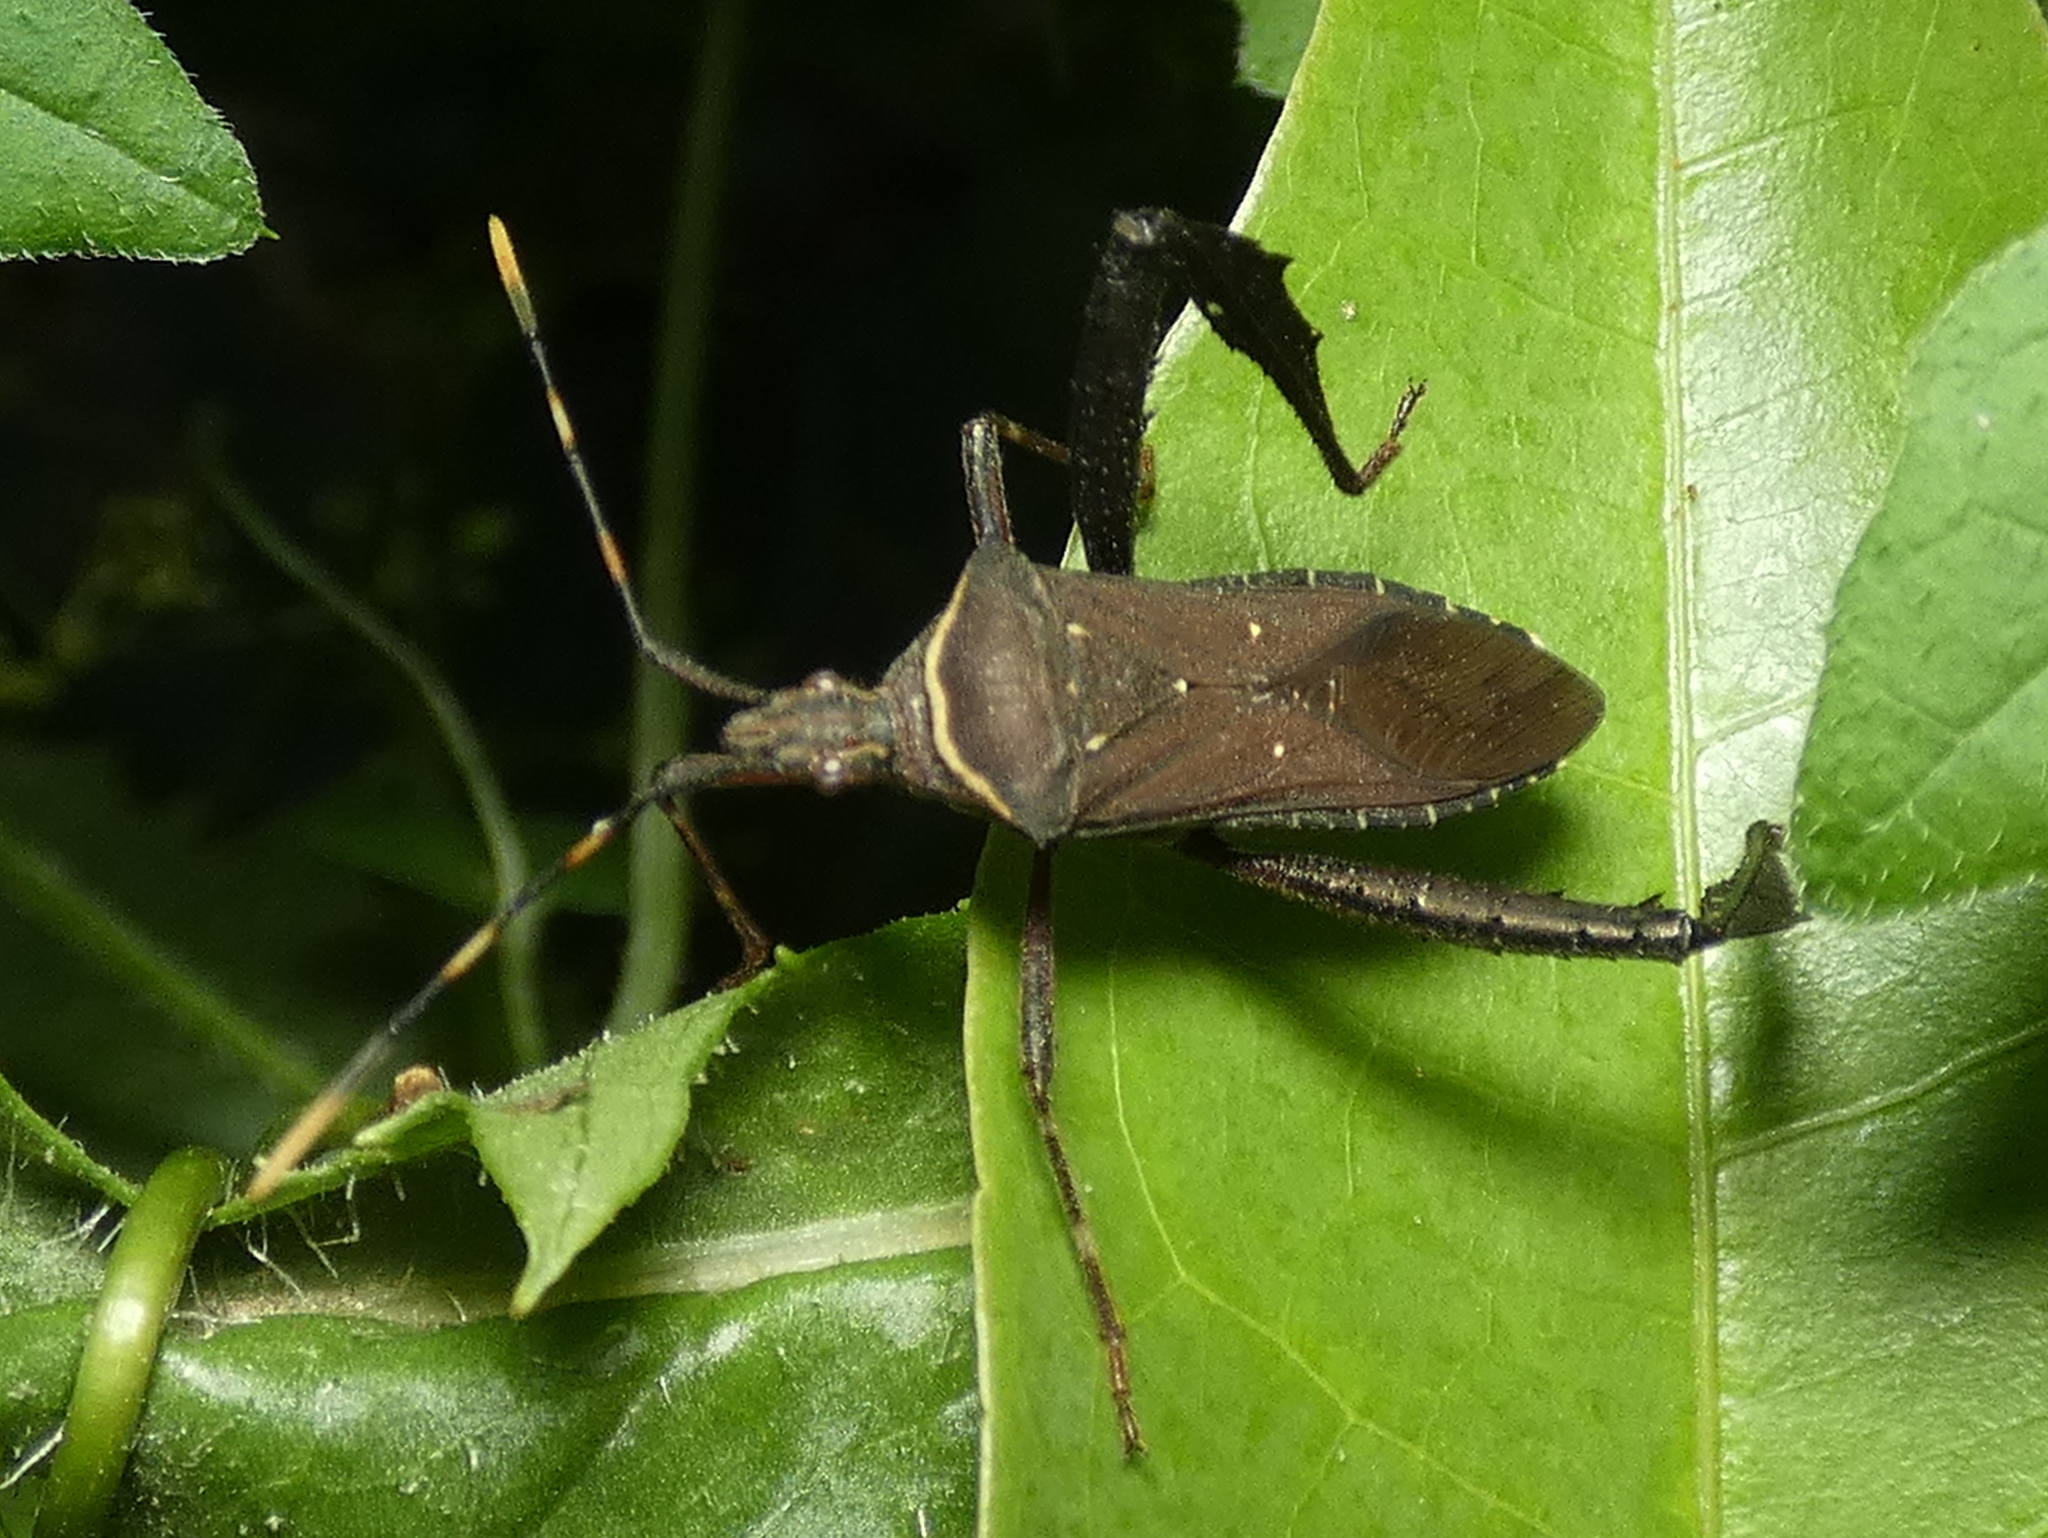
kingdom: Animalia
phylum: Arthropoda
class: Insecta
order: Hemiptera
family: Coreidae
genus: Leptoglossus
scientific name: Leptoglossus gonagra
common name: Citron bug
